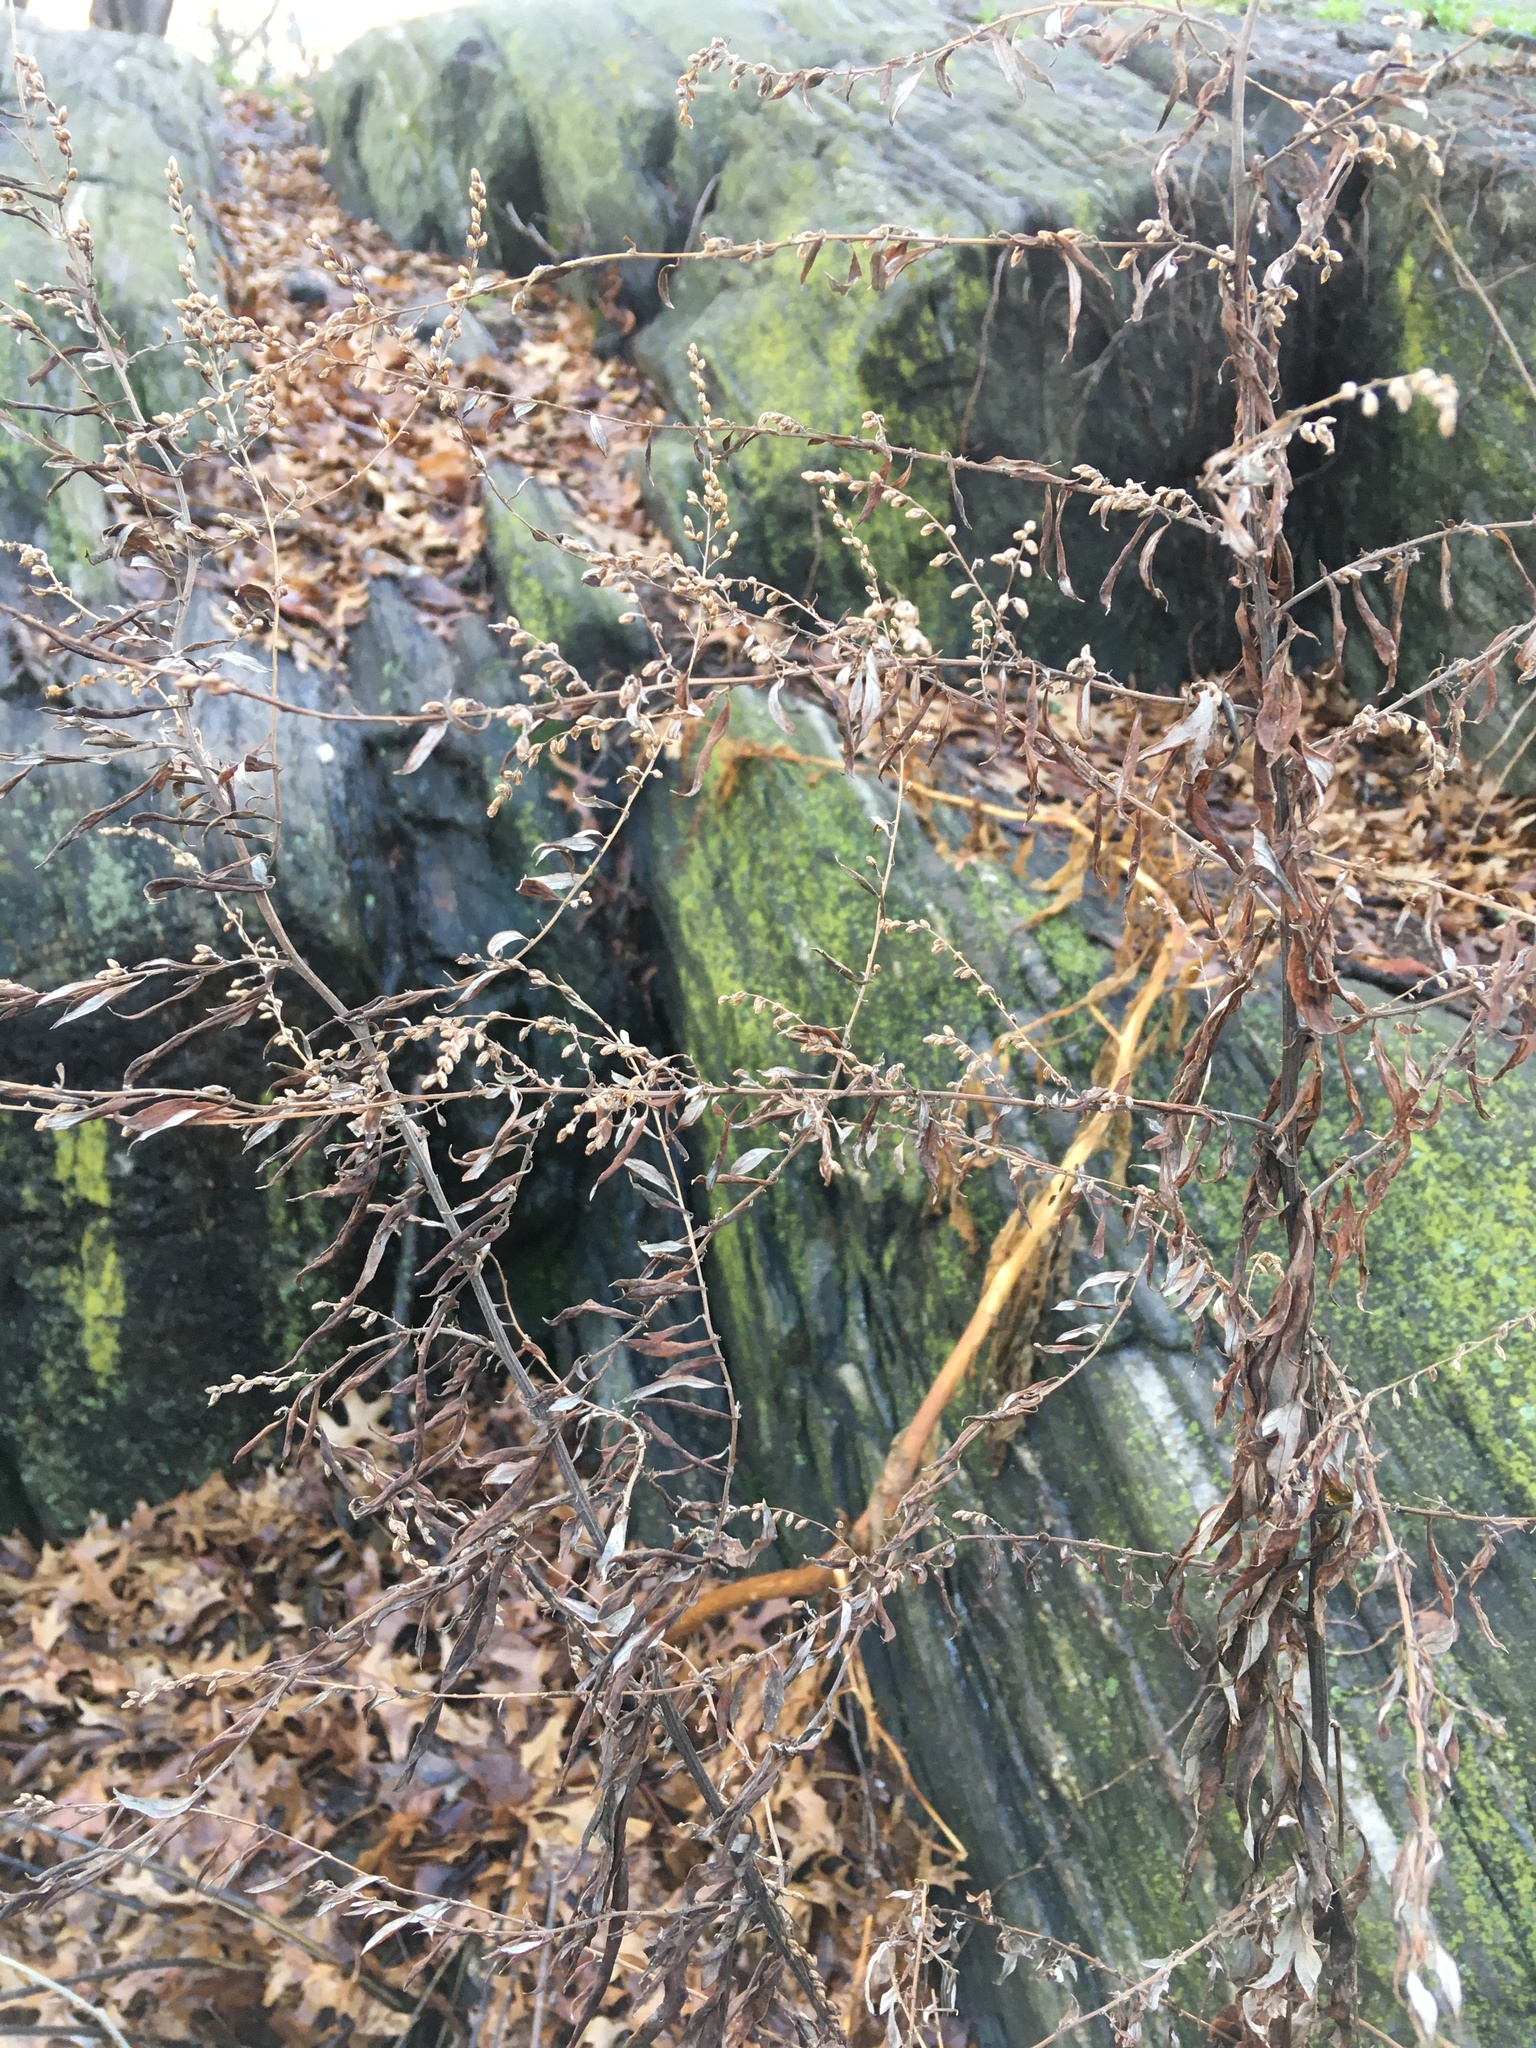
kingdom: Plantae
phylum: Tracheophyta
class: Magnoliopsida
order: Caryophyllales
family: Phytolaccaceae
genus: Phytolacca
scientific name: Phytolacca americana
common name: American pokeweed
